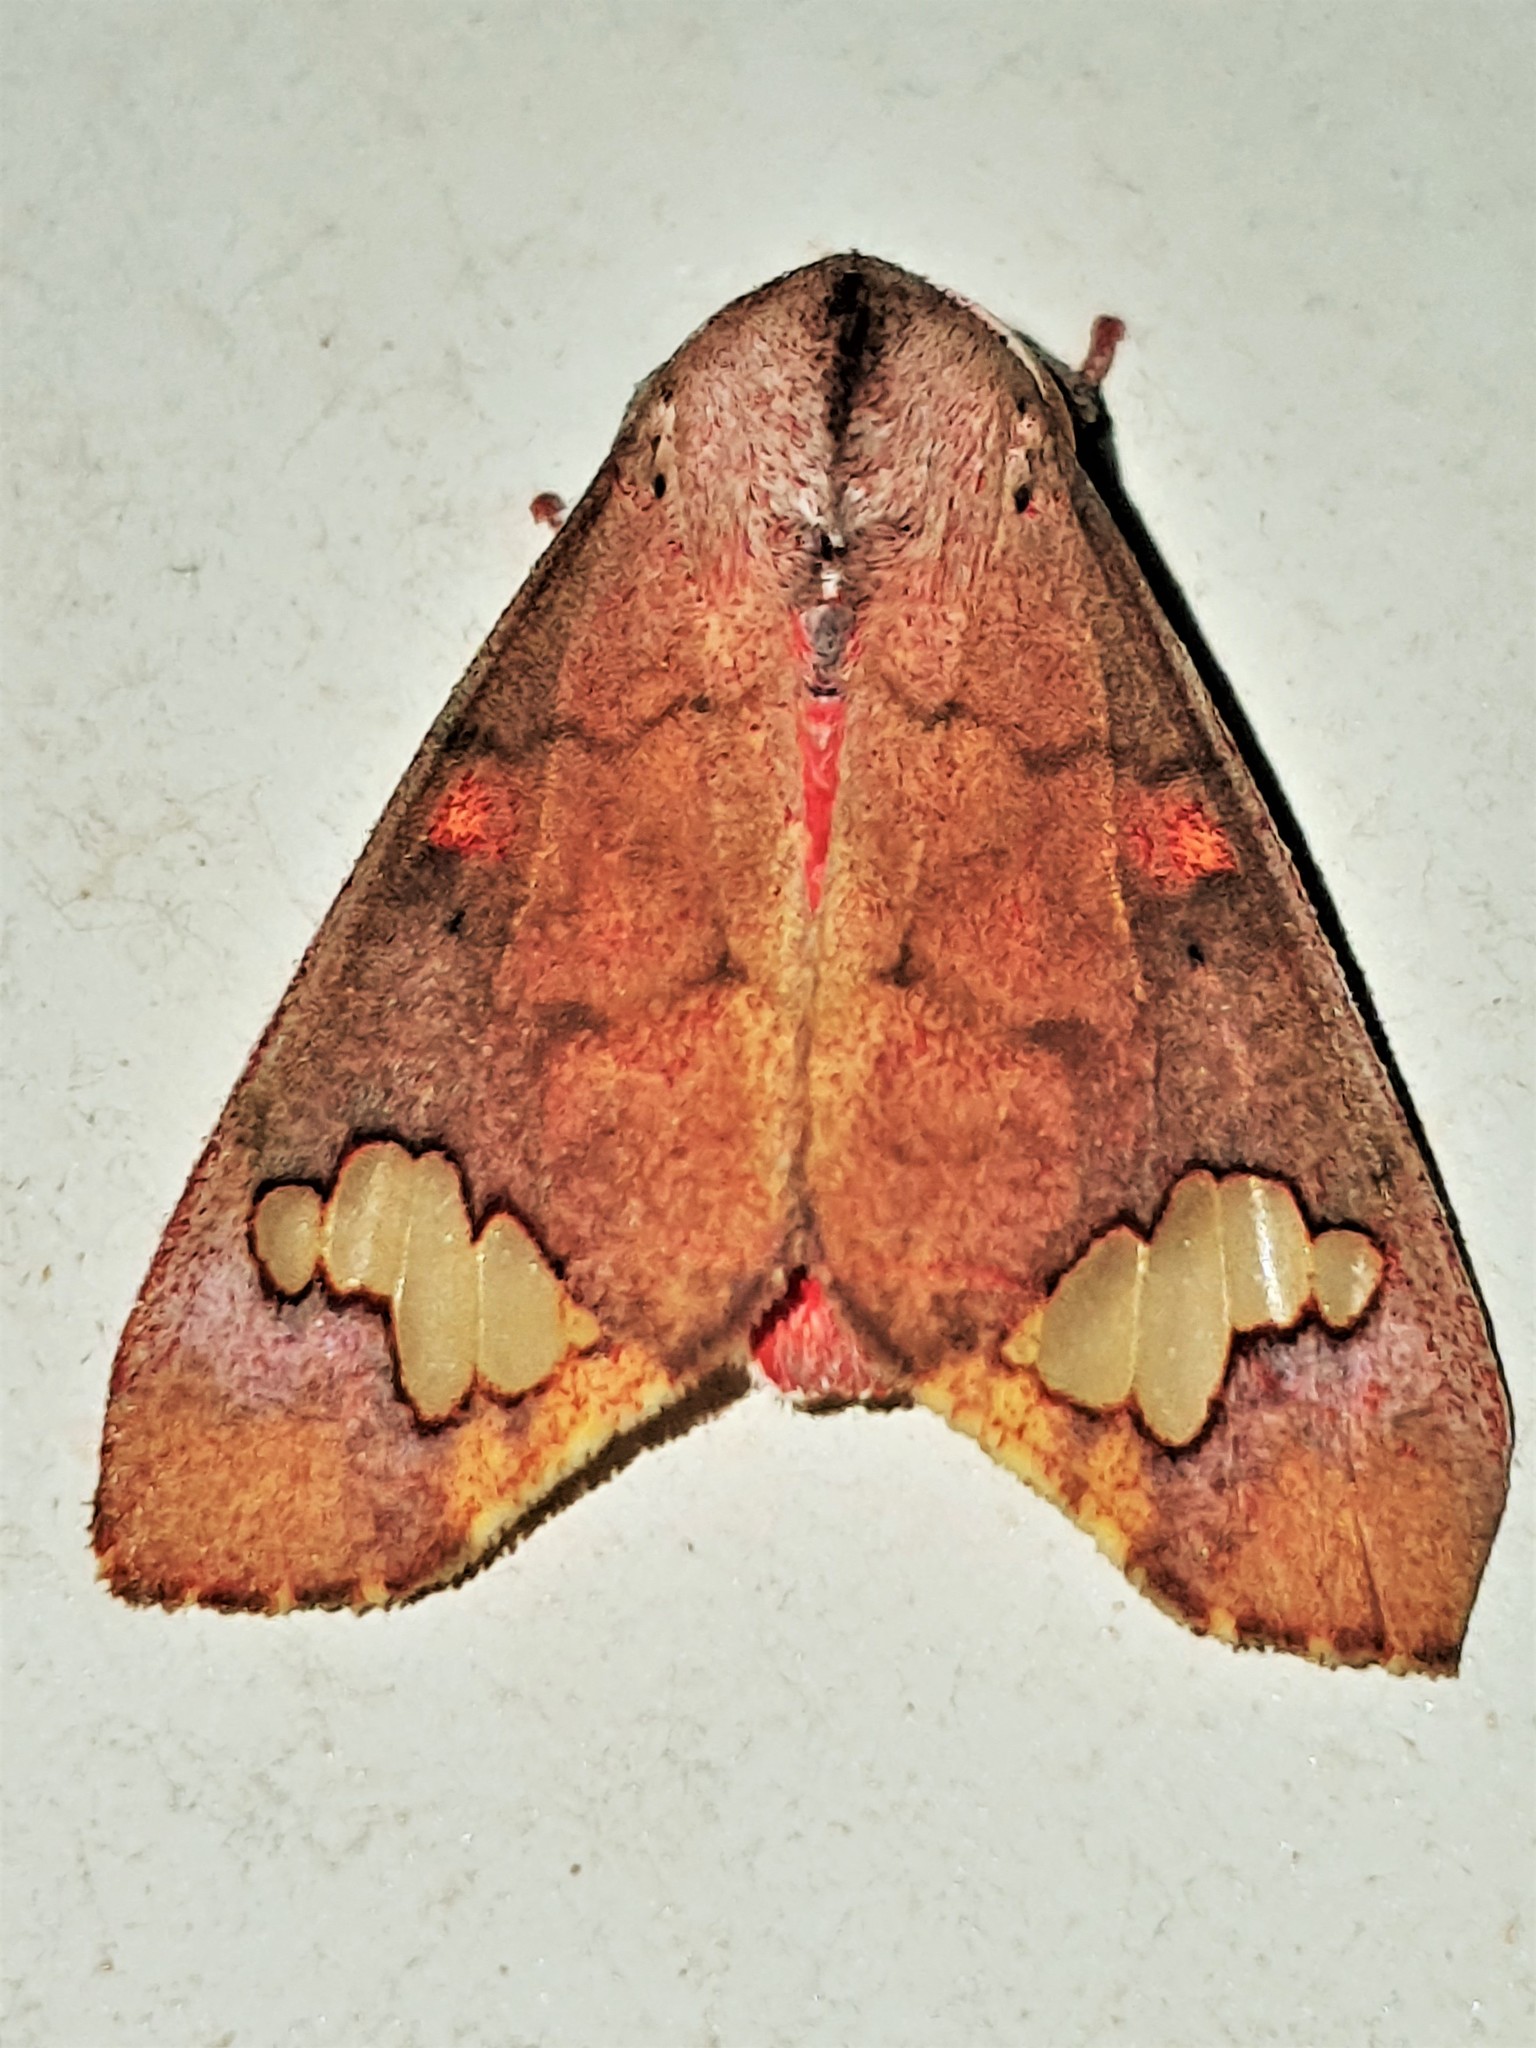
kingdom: Animalia
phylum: Arthropoda
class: Insecta
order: Lepidoptera
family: Erebidae
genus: Zatrephes
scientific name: Zatrephes flavipuncta
